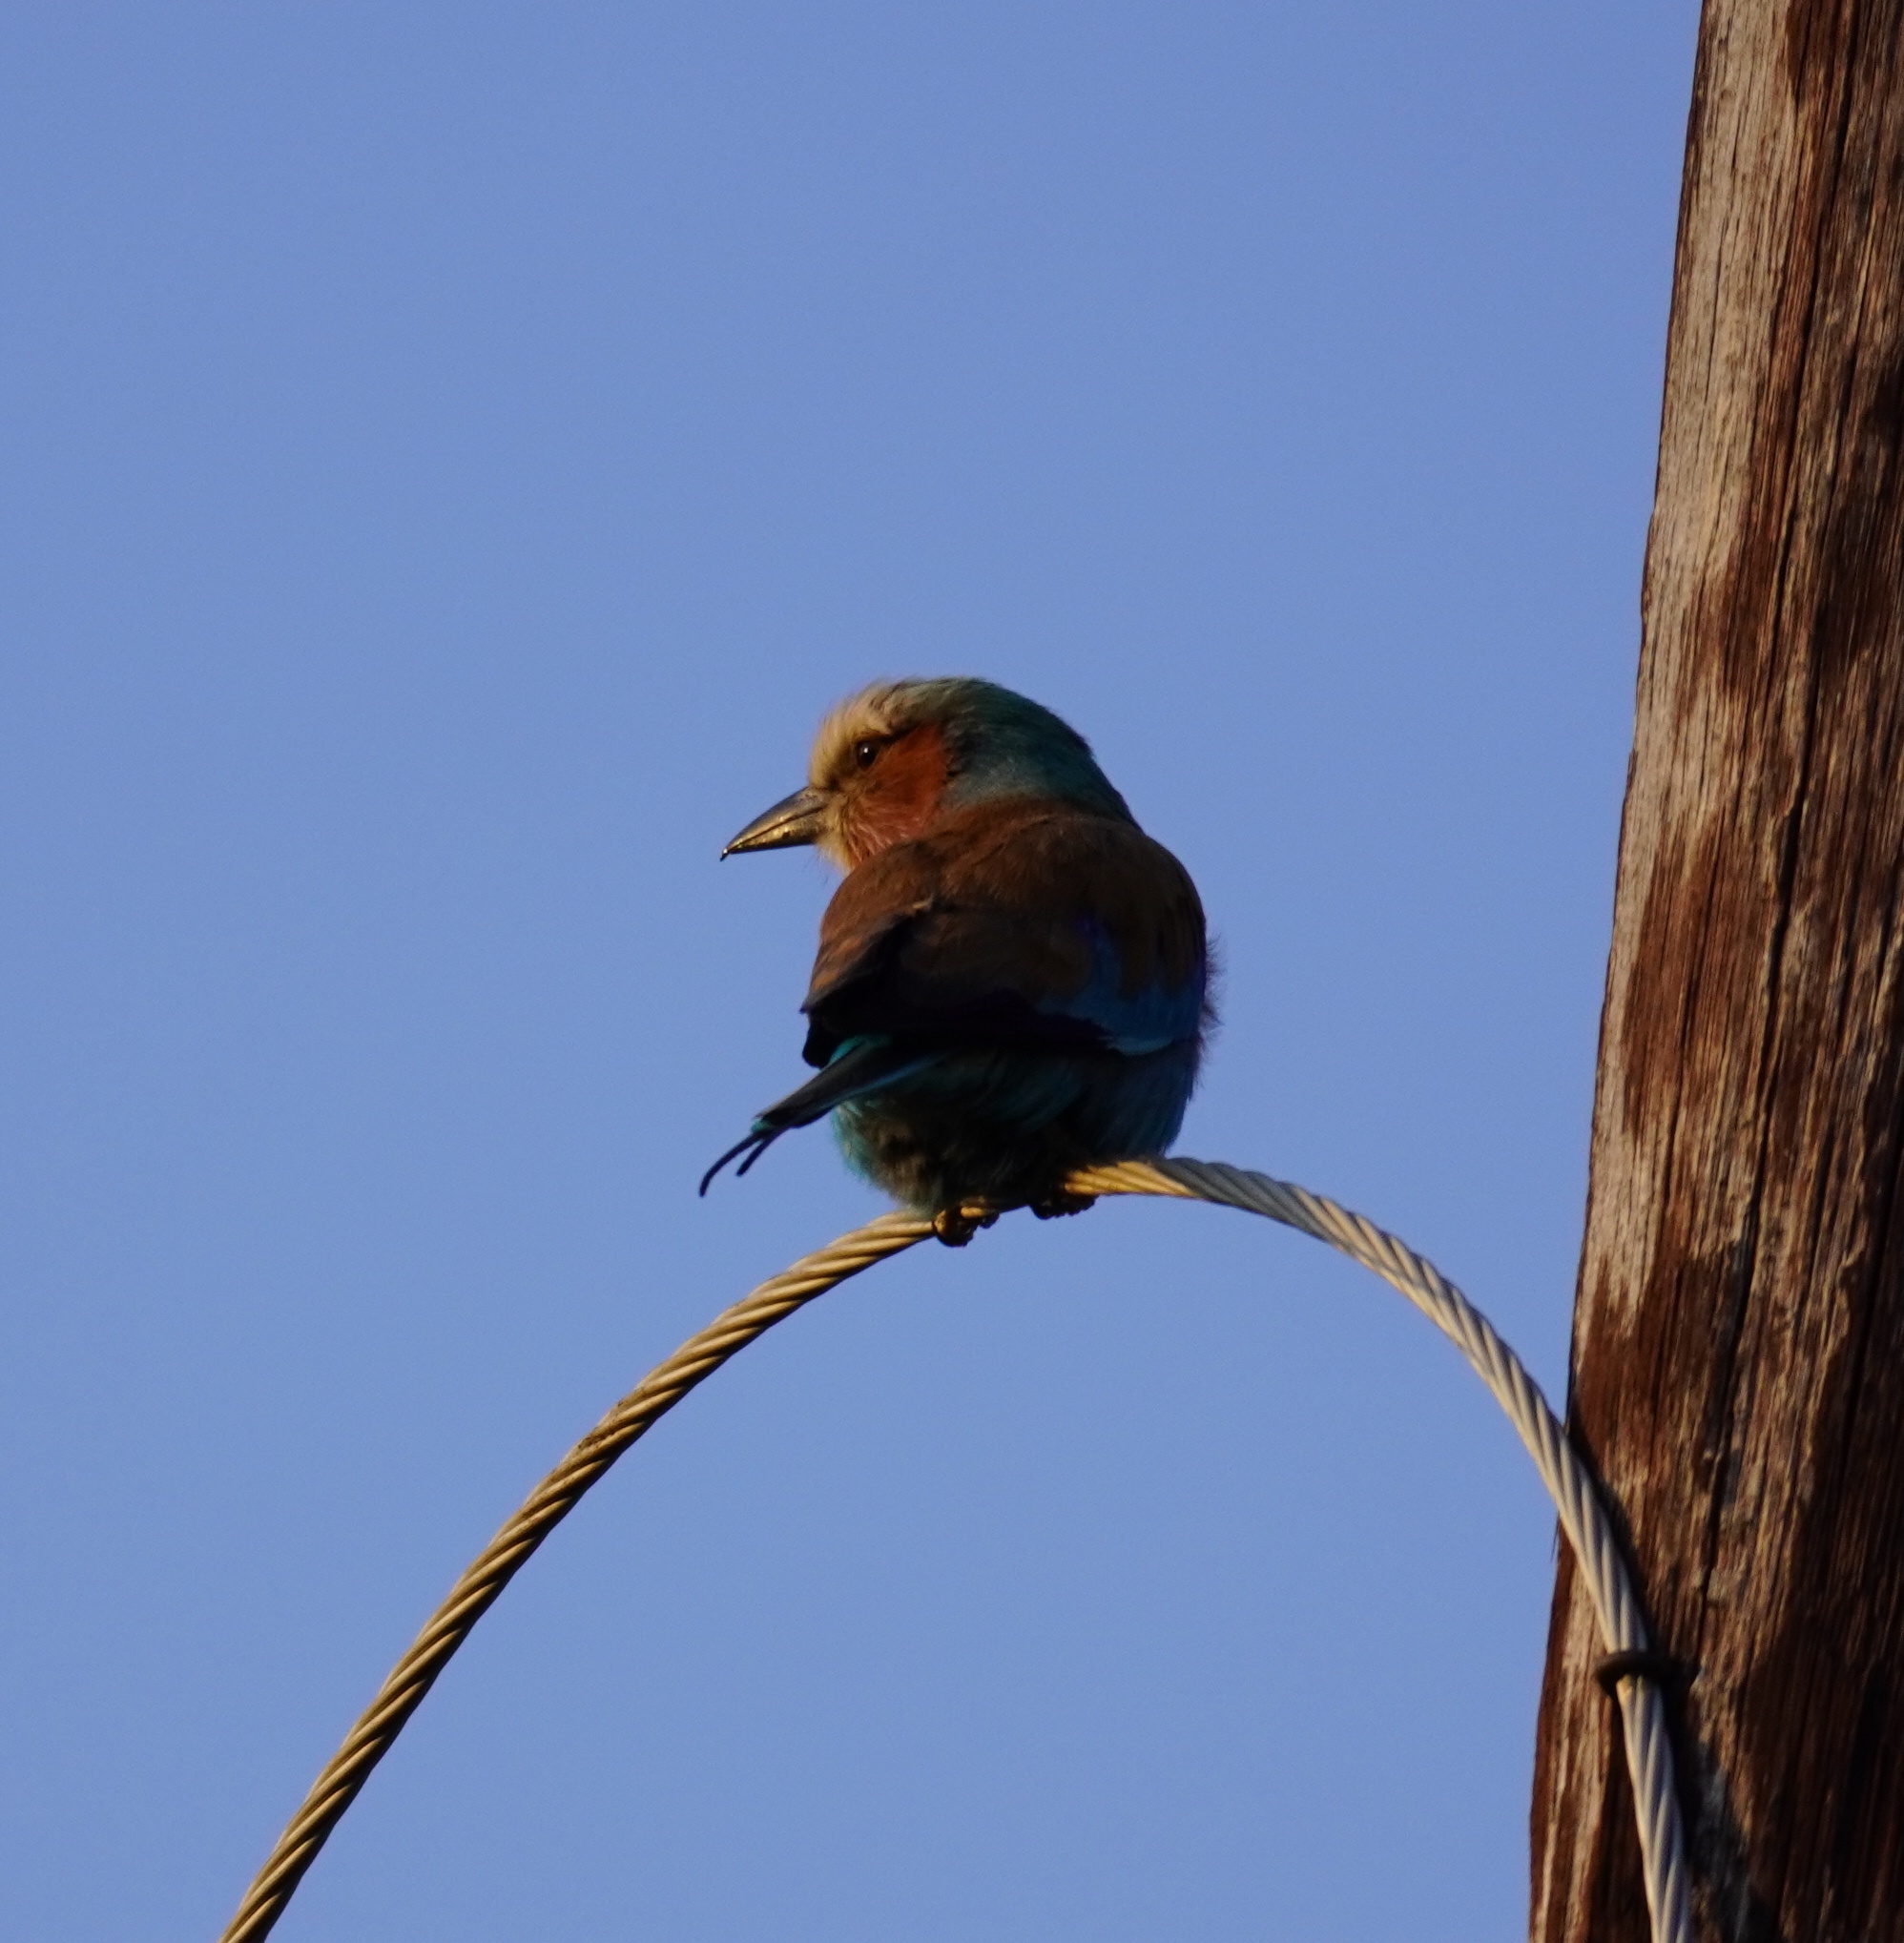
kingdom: Animalia
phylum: Chordata
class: Aves
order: Coraciiformes
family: Coraciidae
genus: Coracias
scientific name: Coracias caudatus
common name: Lilac-breasted roller
